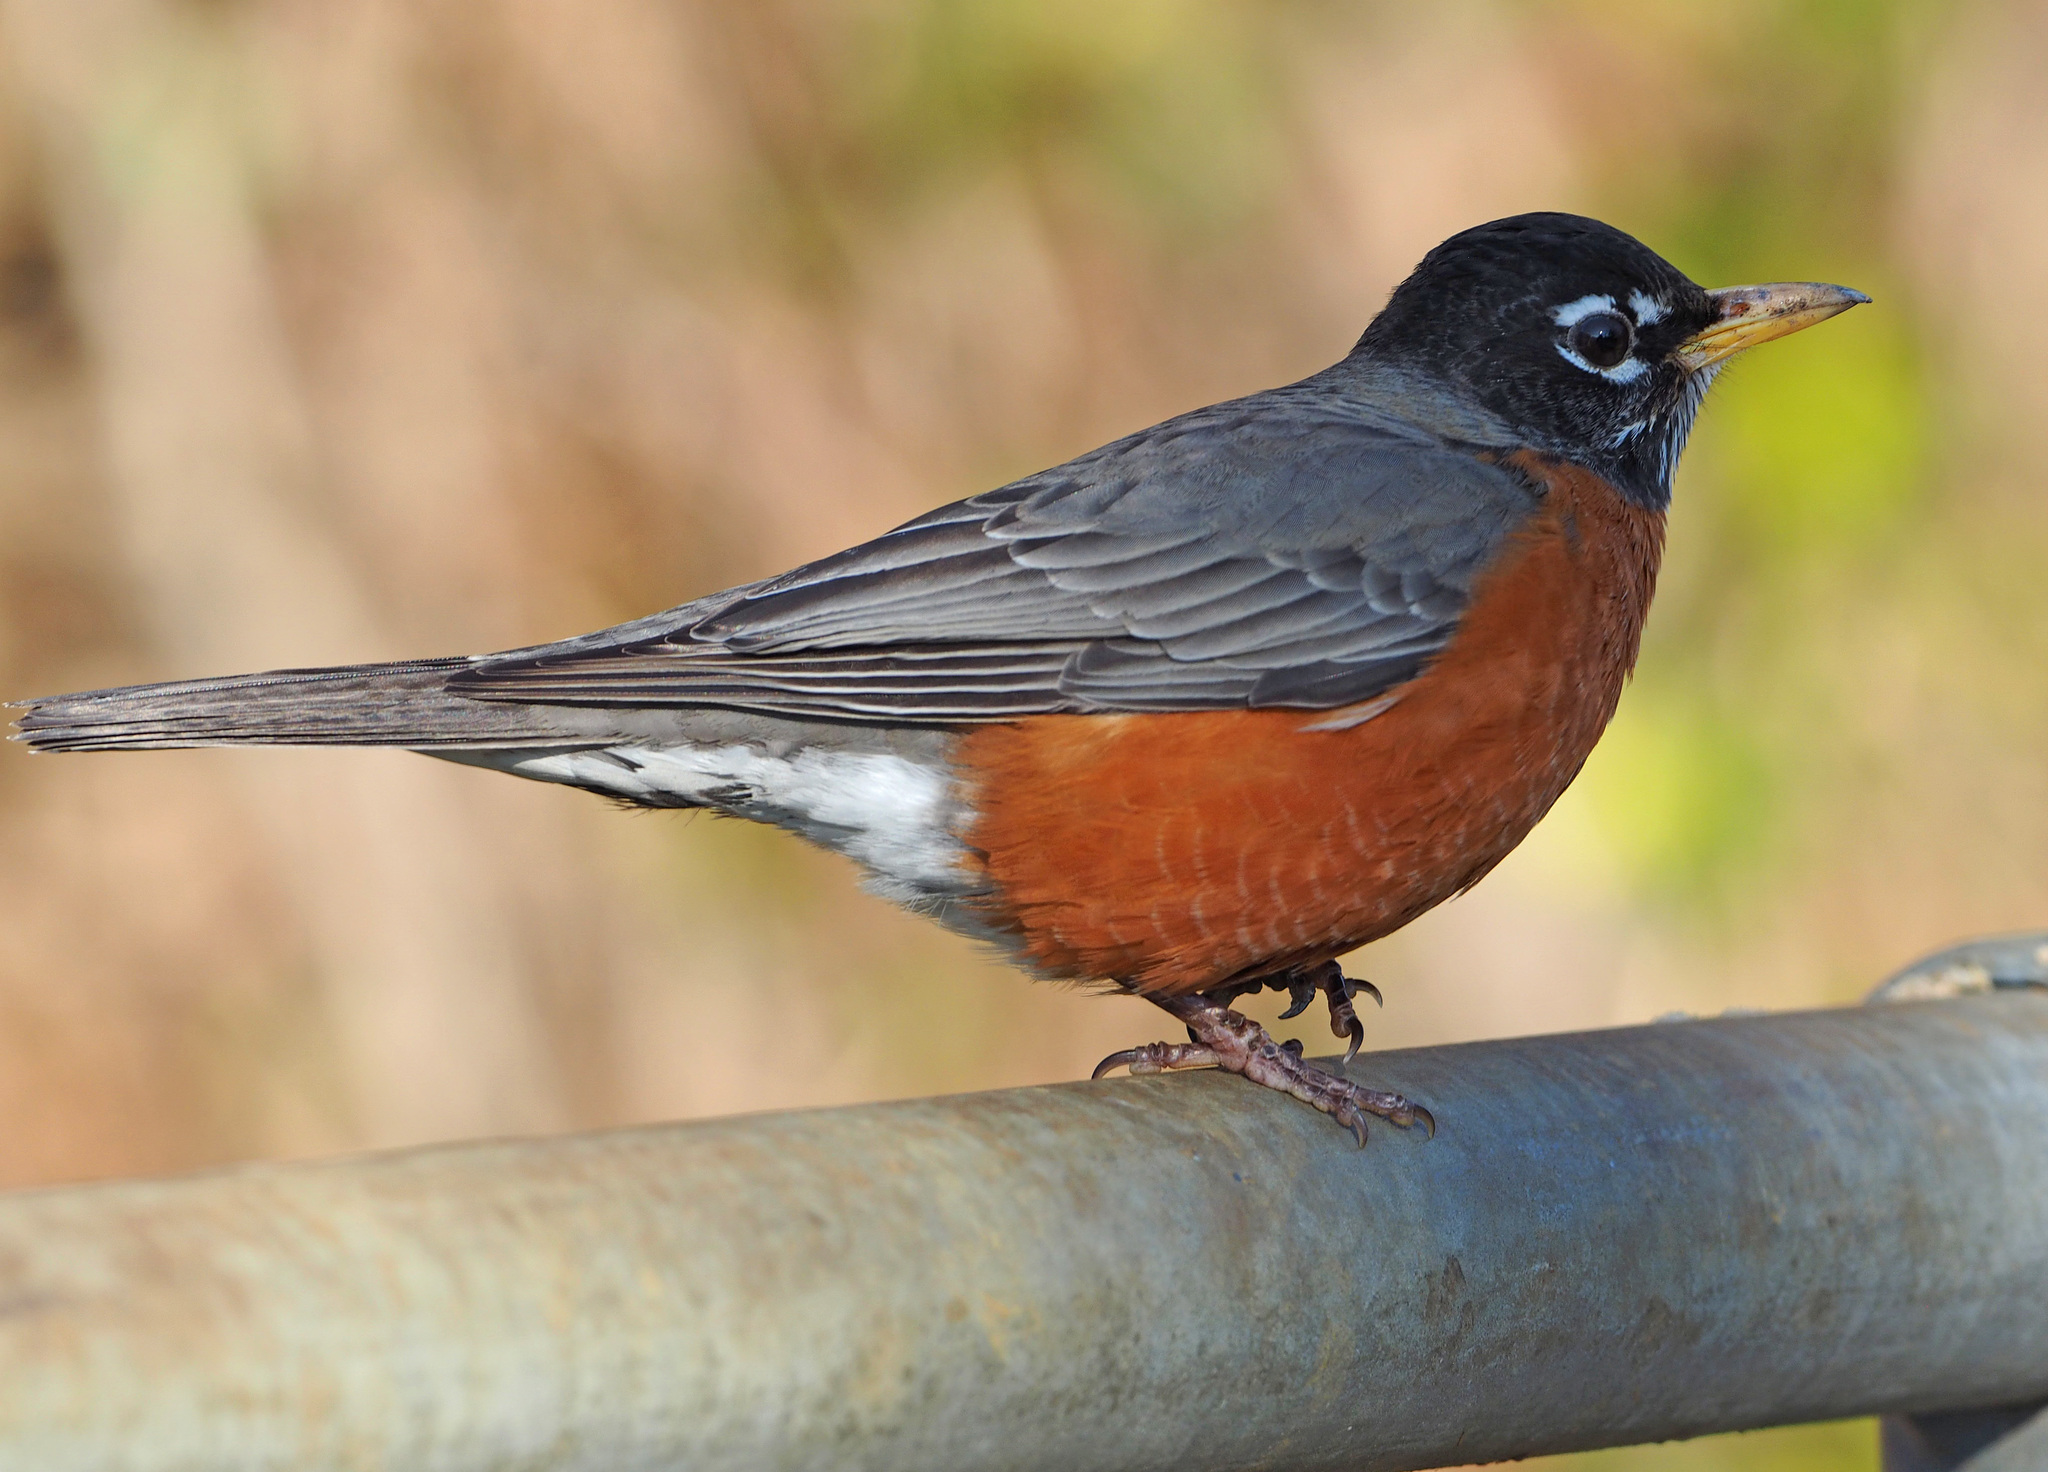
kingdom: Animalia
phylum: Chordata
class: Aves
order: Passeriformes
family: Turdidae
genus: Turdus
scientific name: Turdus migratorius
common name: American robin
